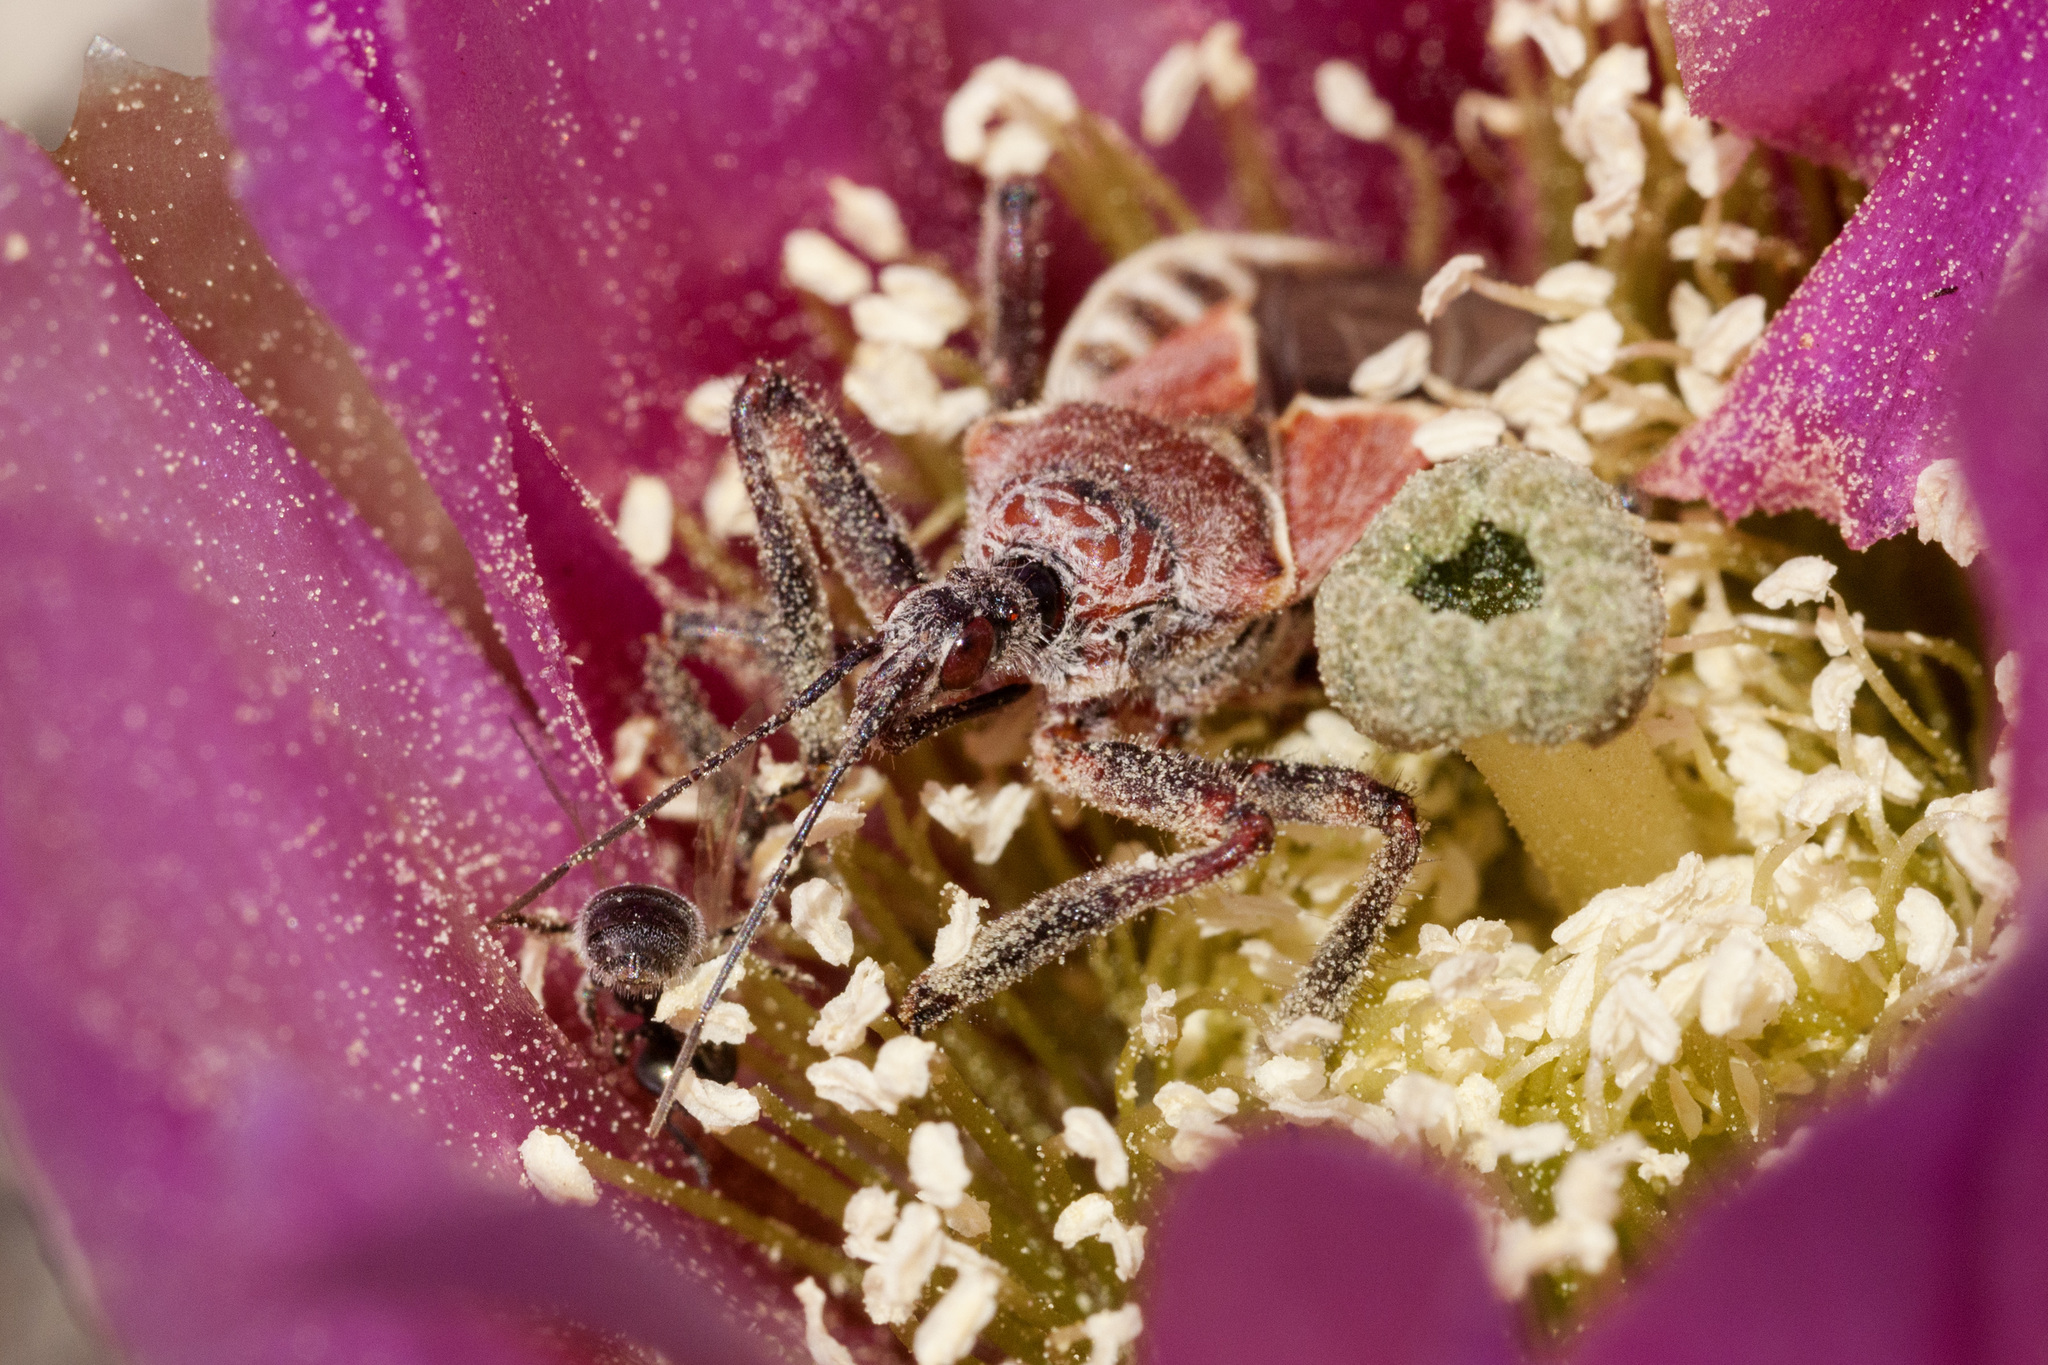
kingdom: Animalia
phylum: Arthropoda
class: Insecta
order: Hemiptera
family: Reduviidae
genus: Apiomerus
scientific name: Apiomerus spissipes
